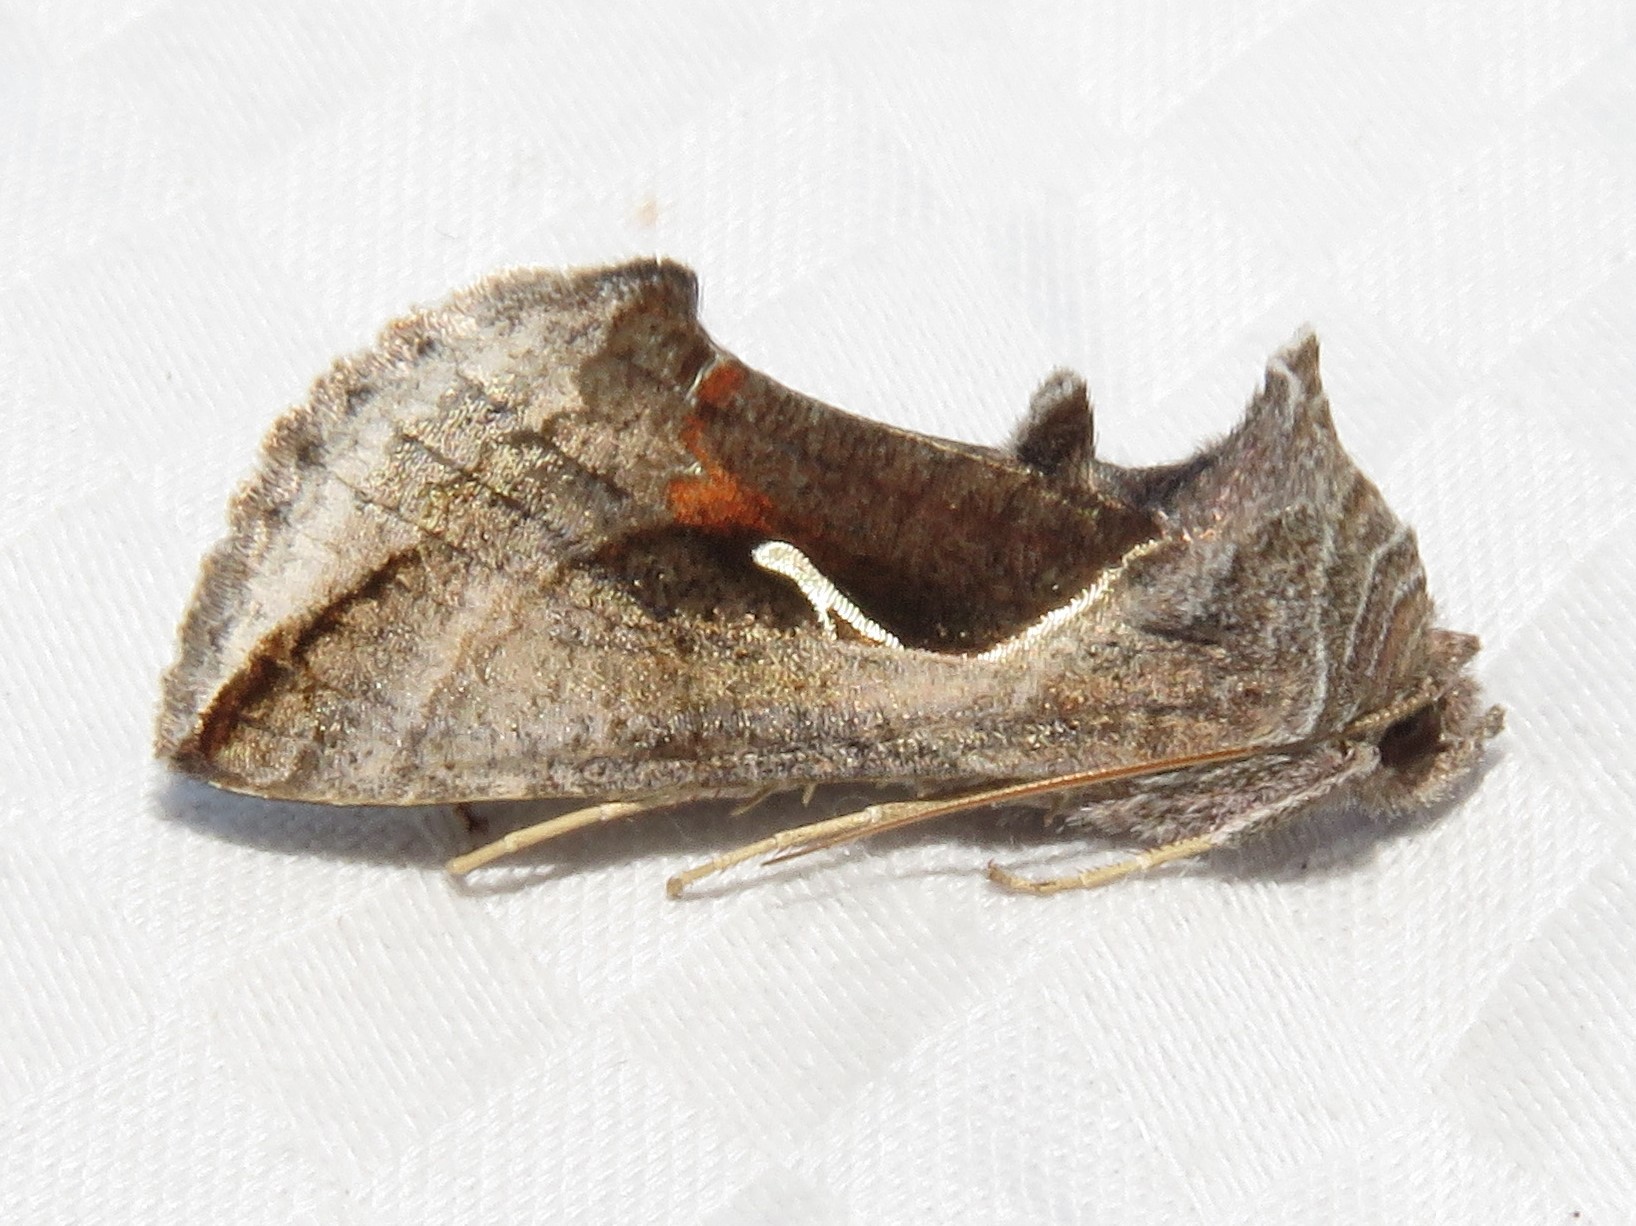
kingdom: Animalia
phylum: Arthropoda
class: Insecta
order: Lepidoptera
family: Noctuidae
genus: Anagrapha
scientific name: Anagrapha falcifera
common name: Celery looper
